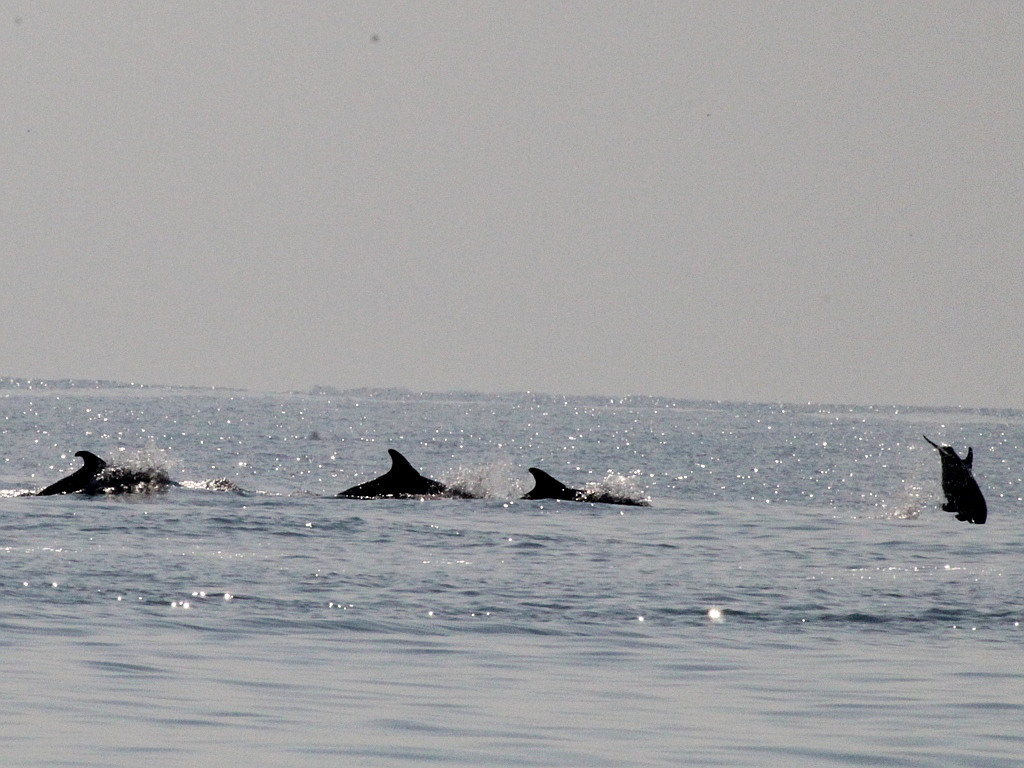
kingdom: Animalia
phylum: Chordata
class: Mammalia
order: Cetacea
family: Delphinidae
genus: Tursiops
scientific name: Tursiops truncatus
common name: Bottlenose dolphin
